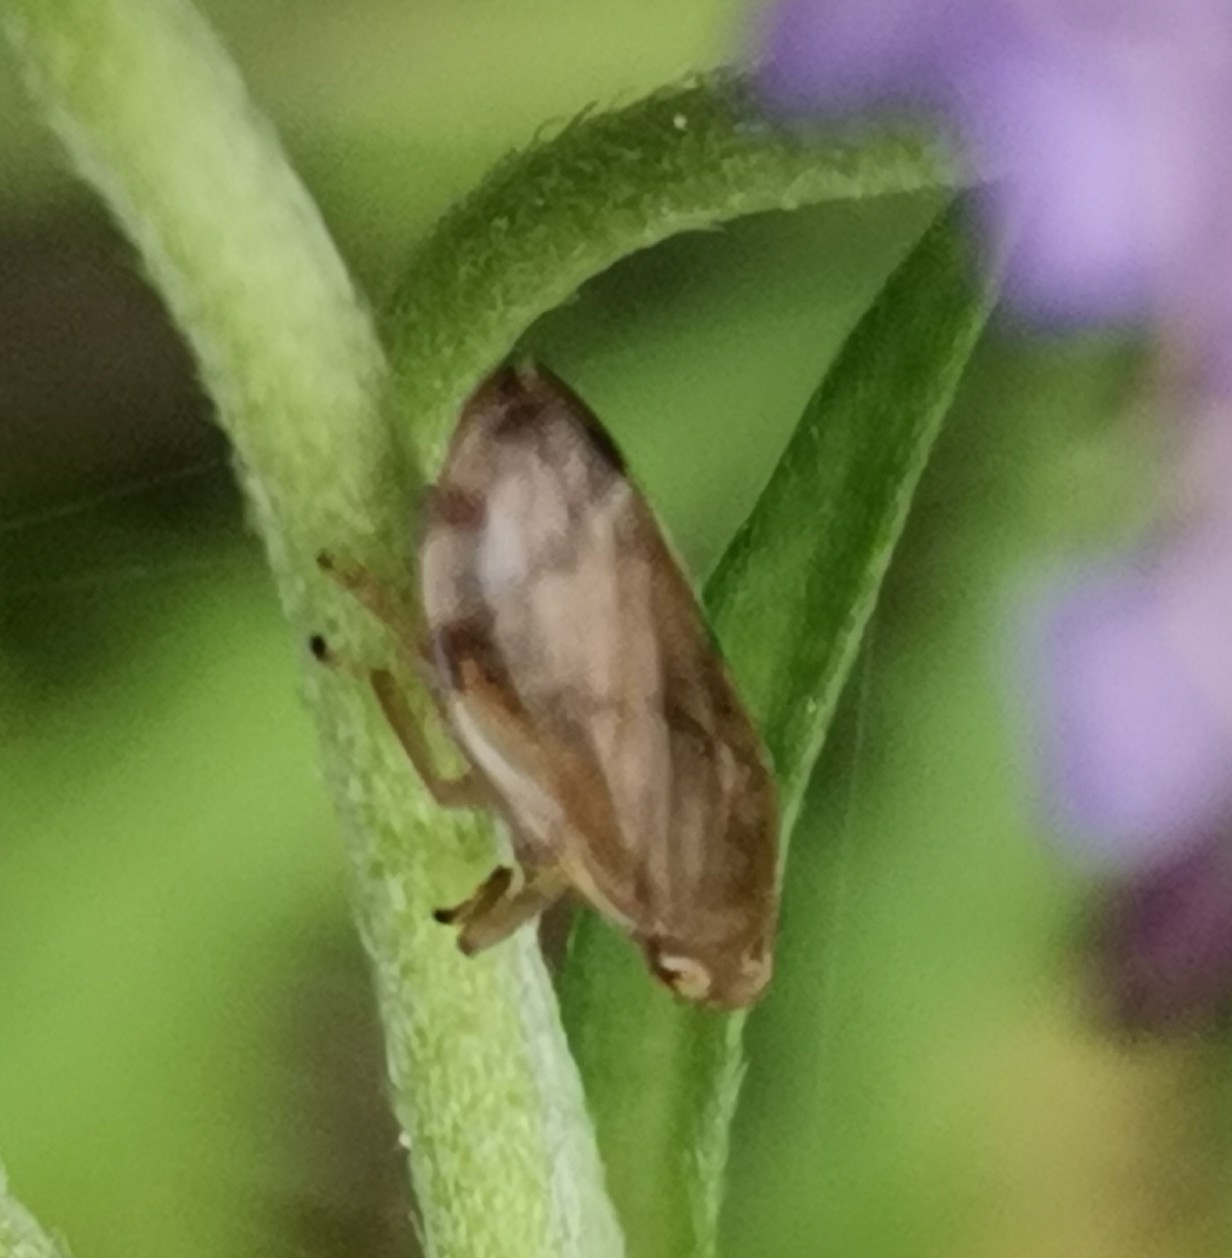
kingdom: Animalia
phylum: Arthropoda
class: Insecta
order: Hemiptera
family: Aphrophoridae
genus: Philaenus
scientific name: Philaenus spumarius
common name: Meadow spittlebug
